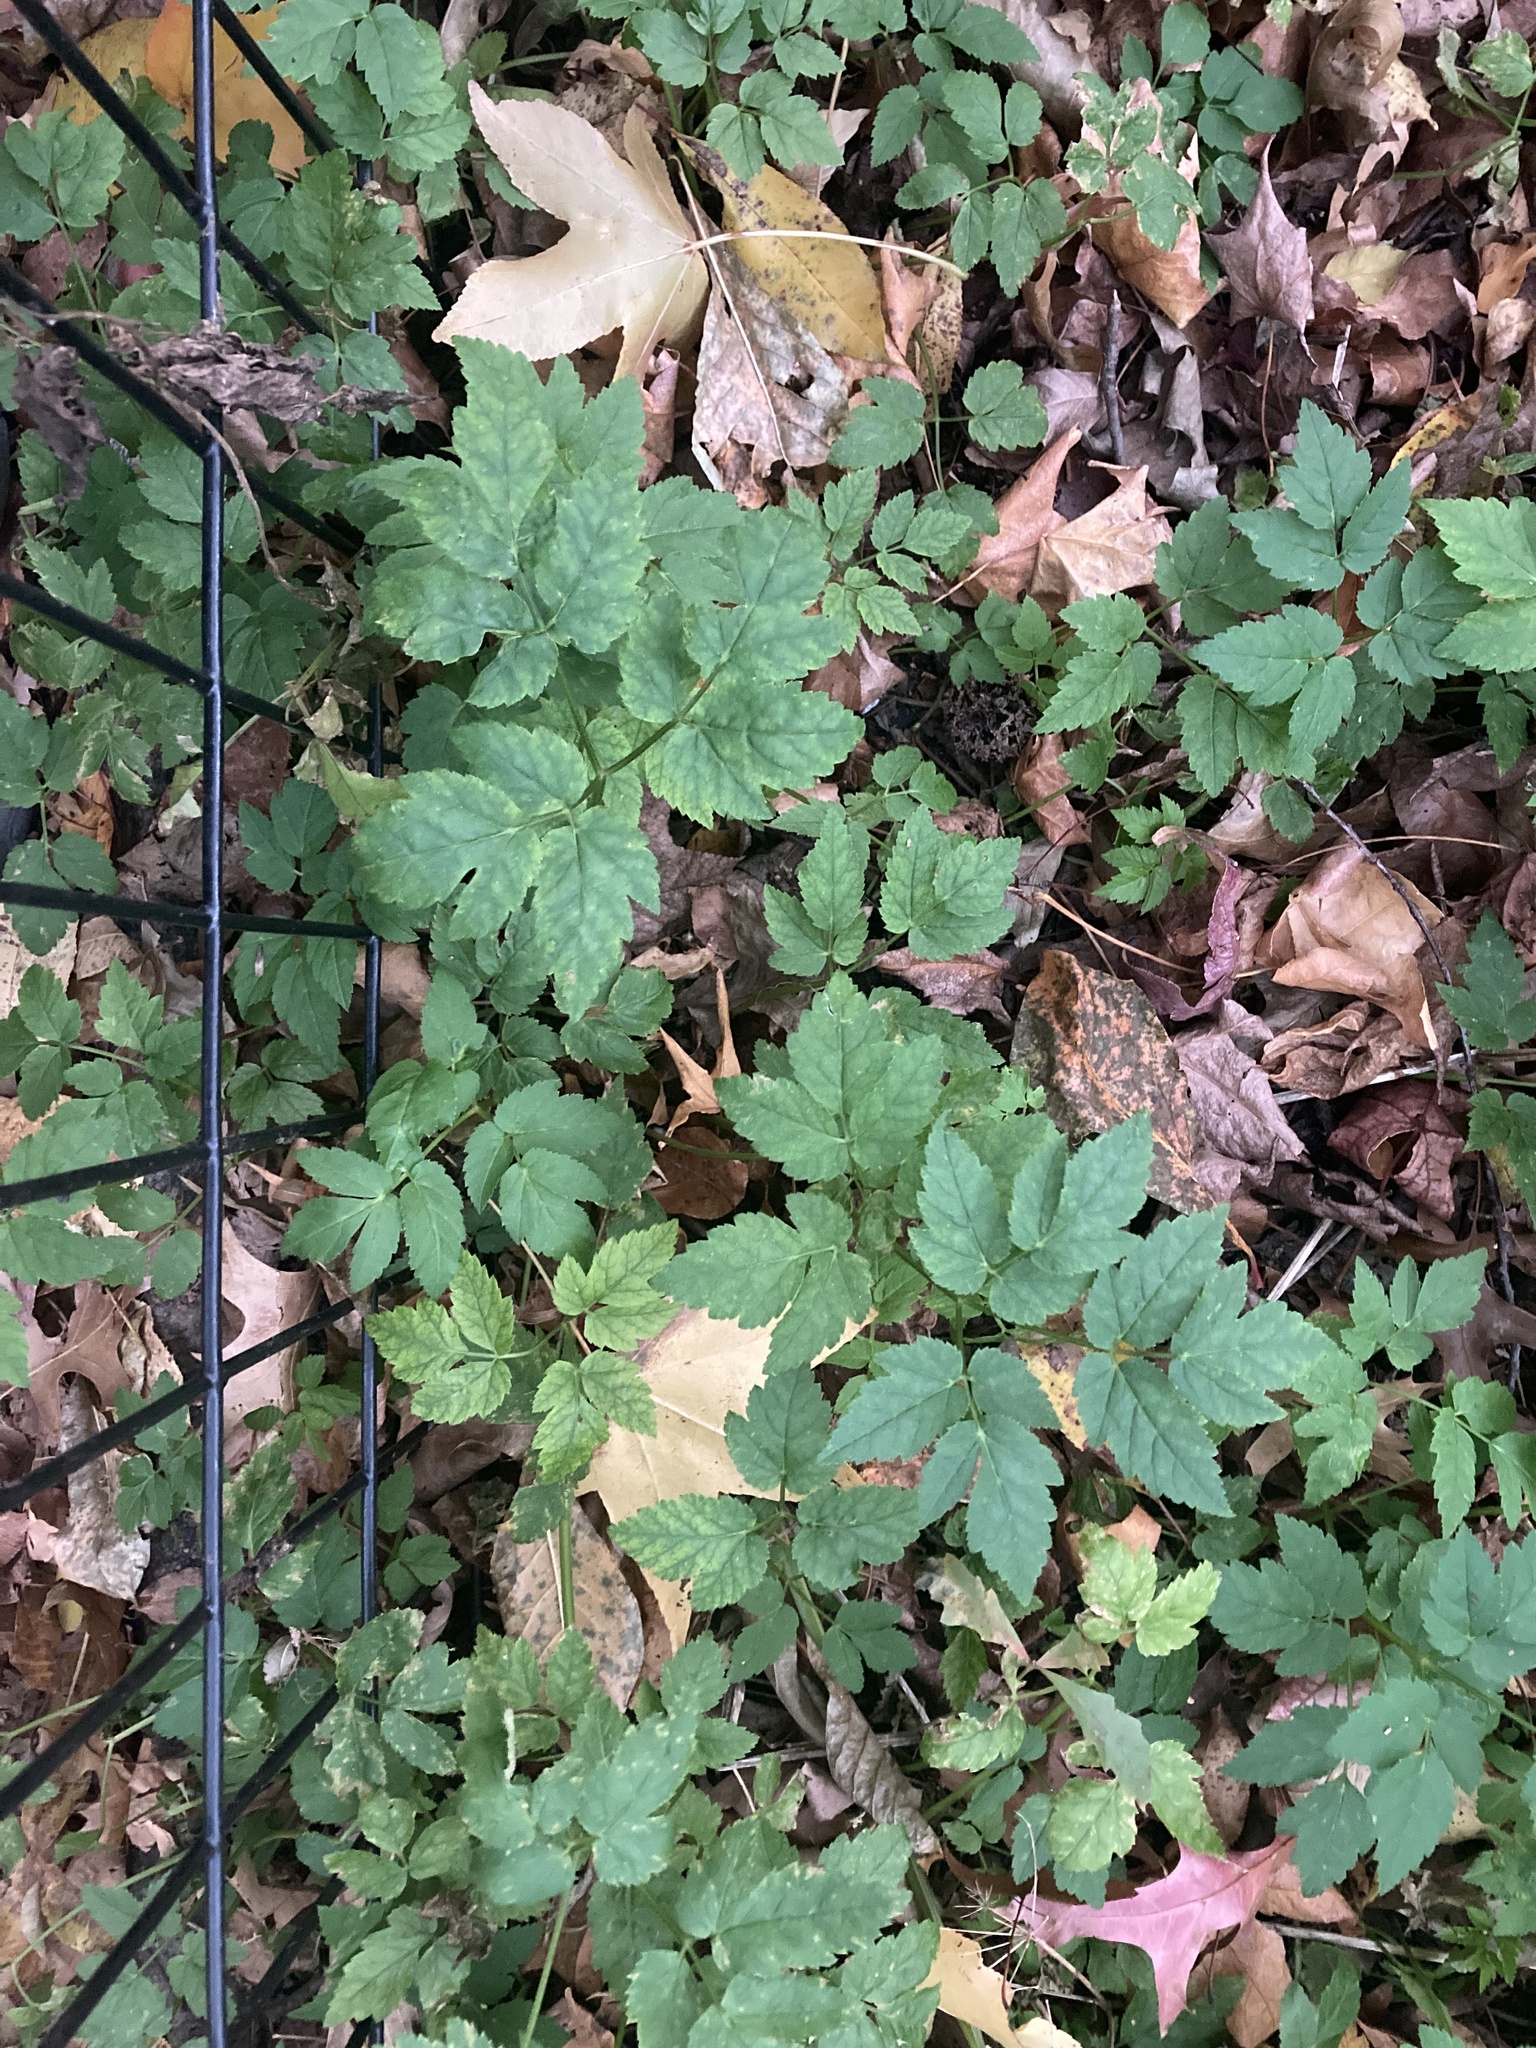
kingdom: Plantae
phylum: Tracheophyta
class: Magnoliopsida
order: Apiales
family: Apiaceae
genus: Aegopodium
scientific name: Aegopodium podagraria
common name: Ground-elder
